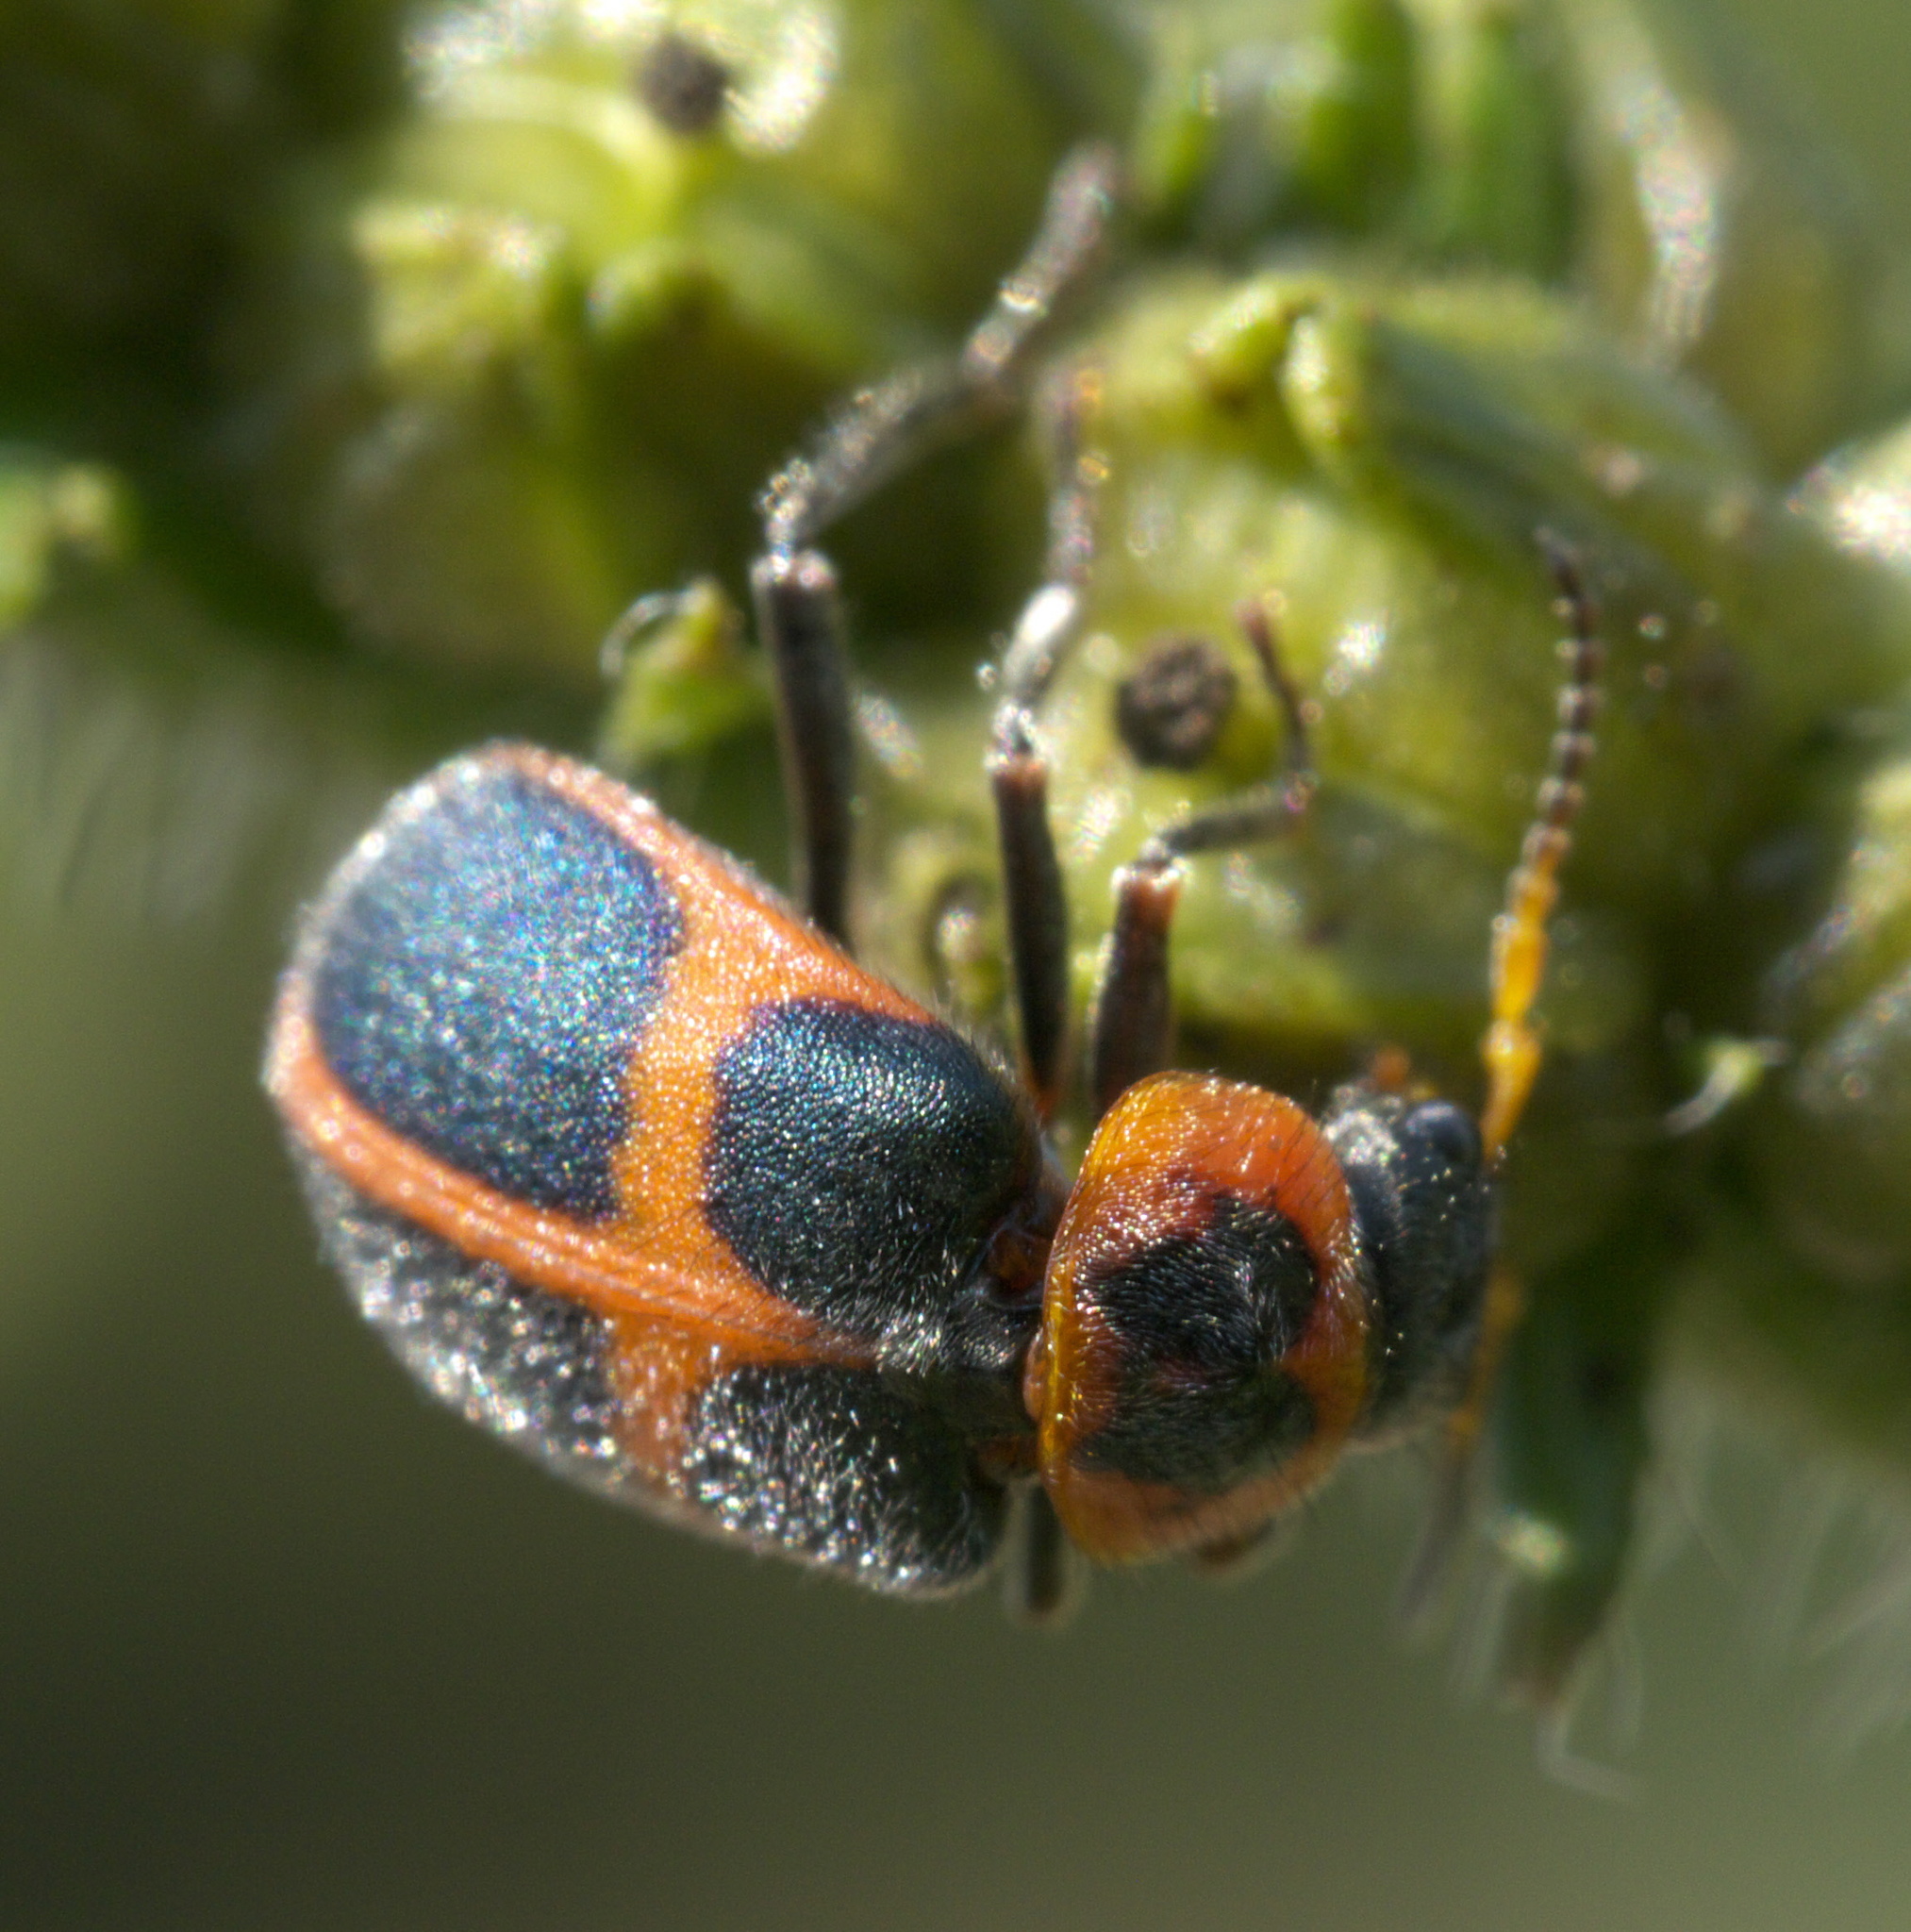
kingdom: Animalia
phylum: Arthropoda
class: Insecta
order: Coleoptera
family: Melyridae
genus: Collops
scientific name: Collops
